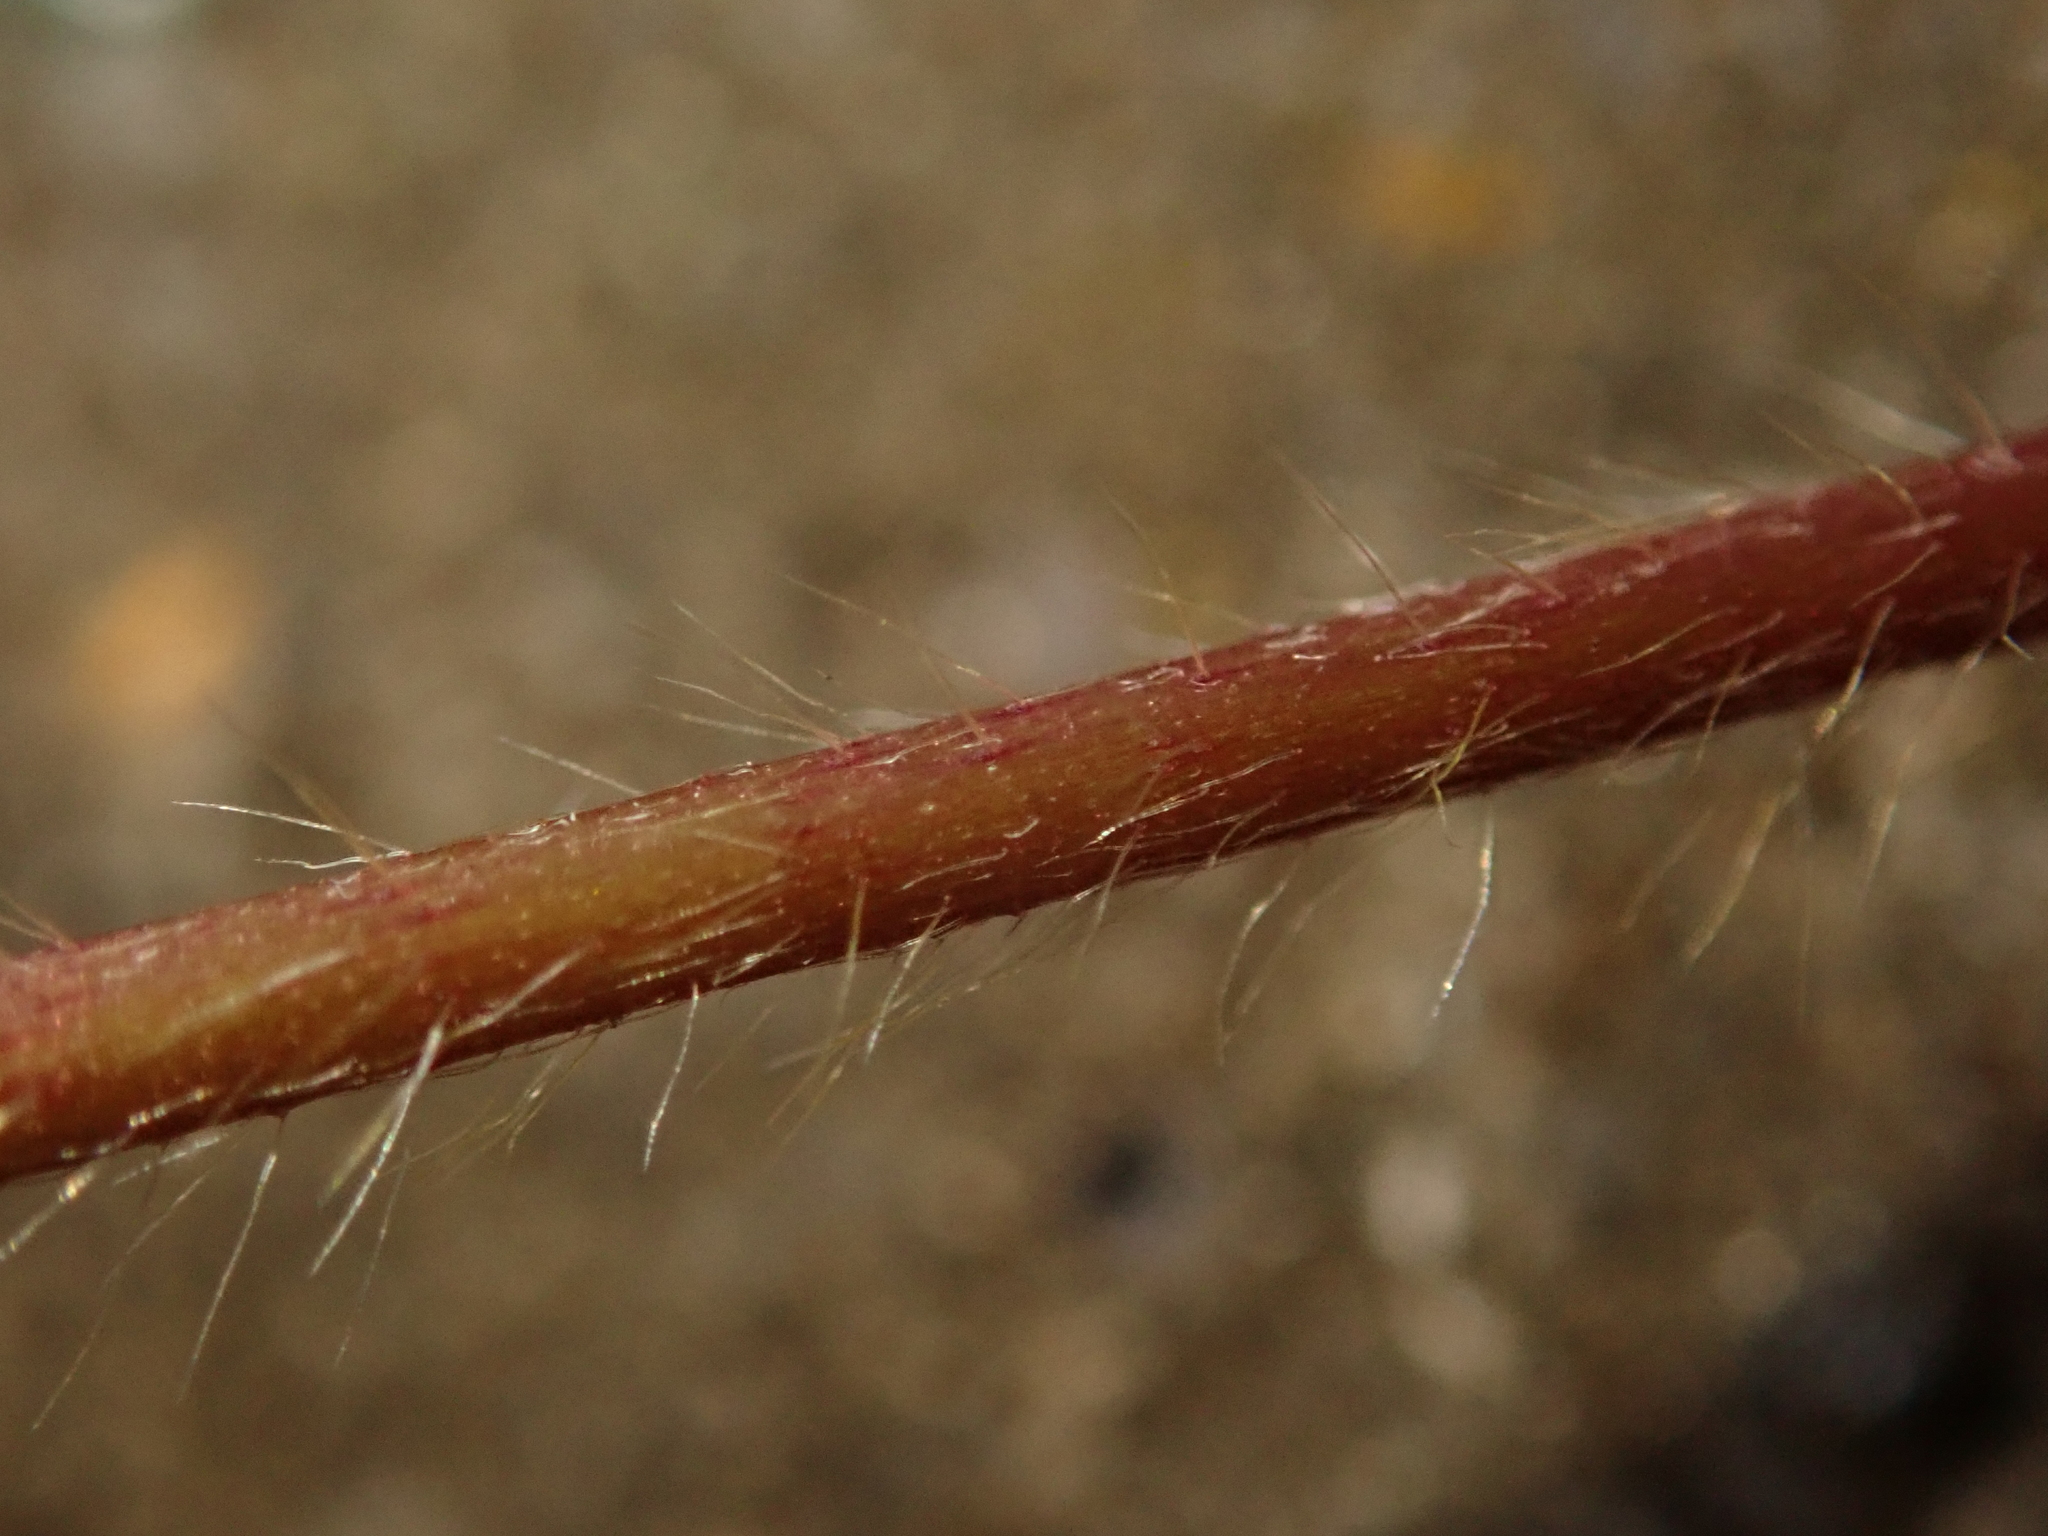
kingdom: Plantae
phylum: Tracheophyta
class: Magnoliopsida
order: Fabales
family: Fabaceae
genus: Lupinus
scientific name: Lupinus polyphyllus
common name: Garden lupin
